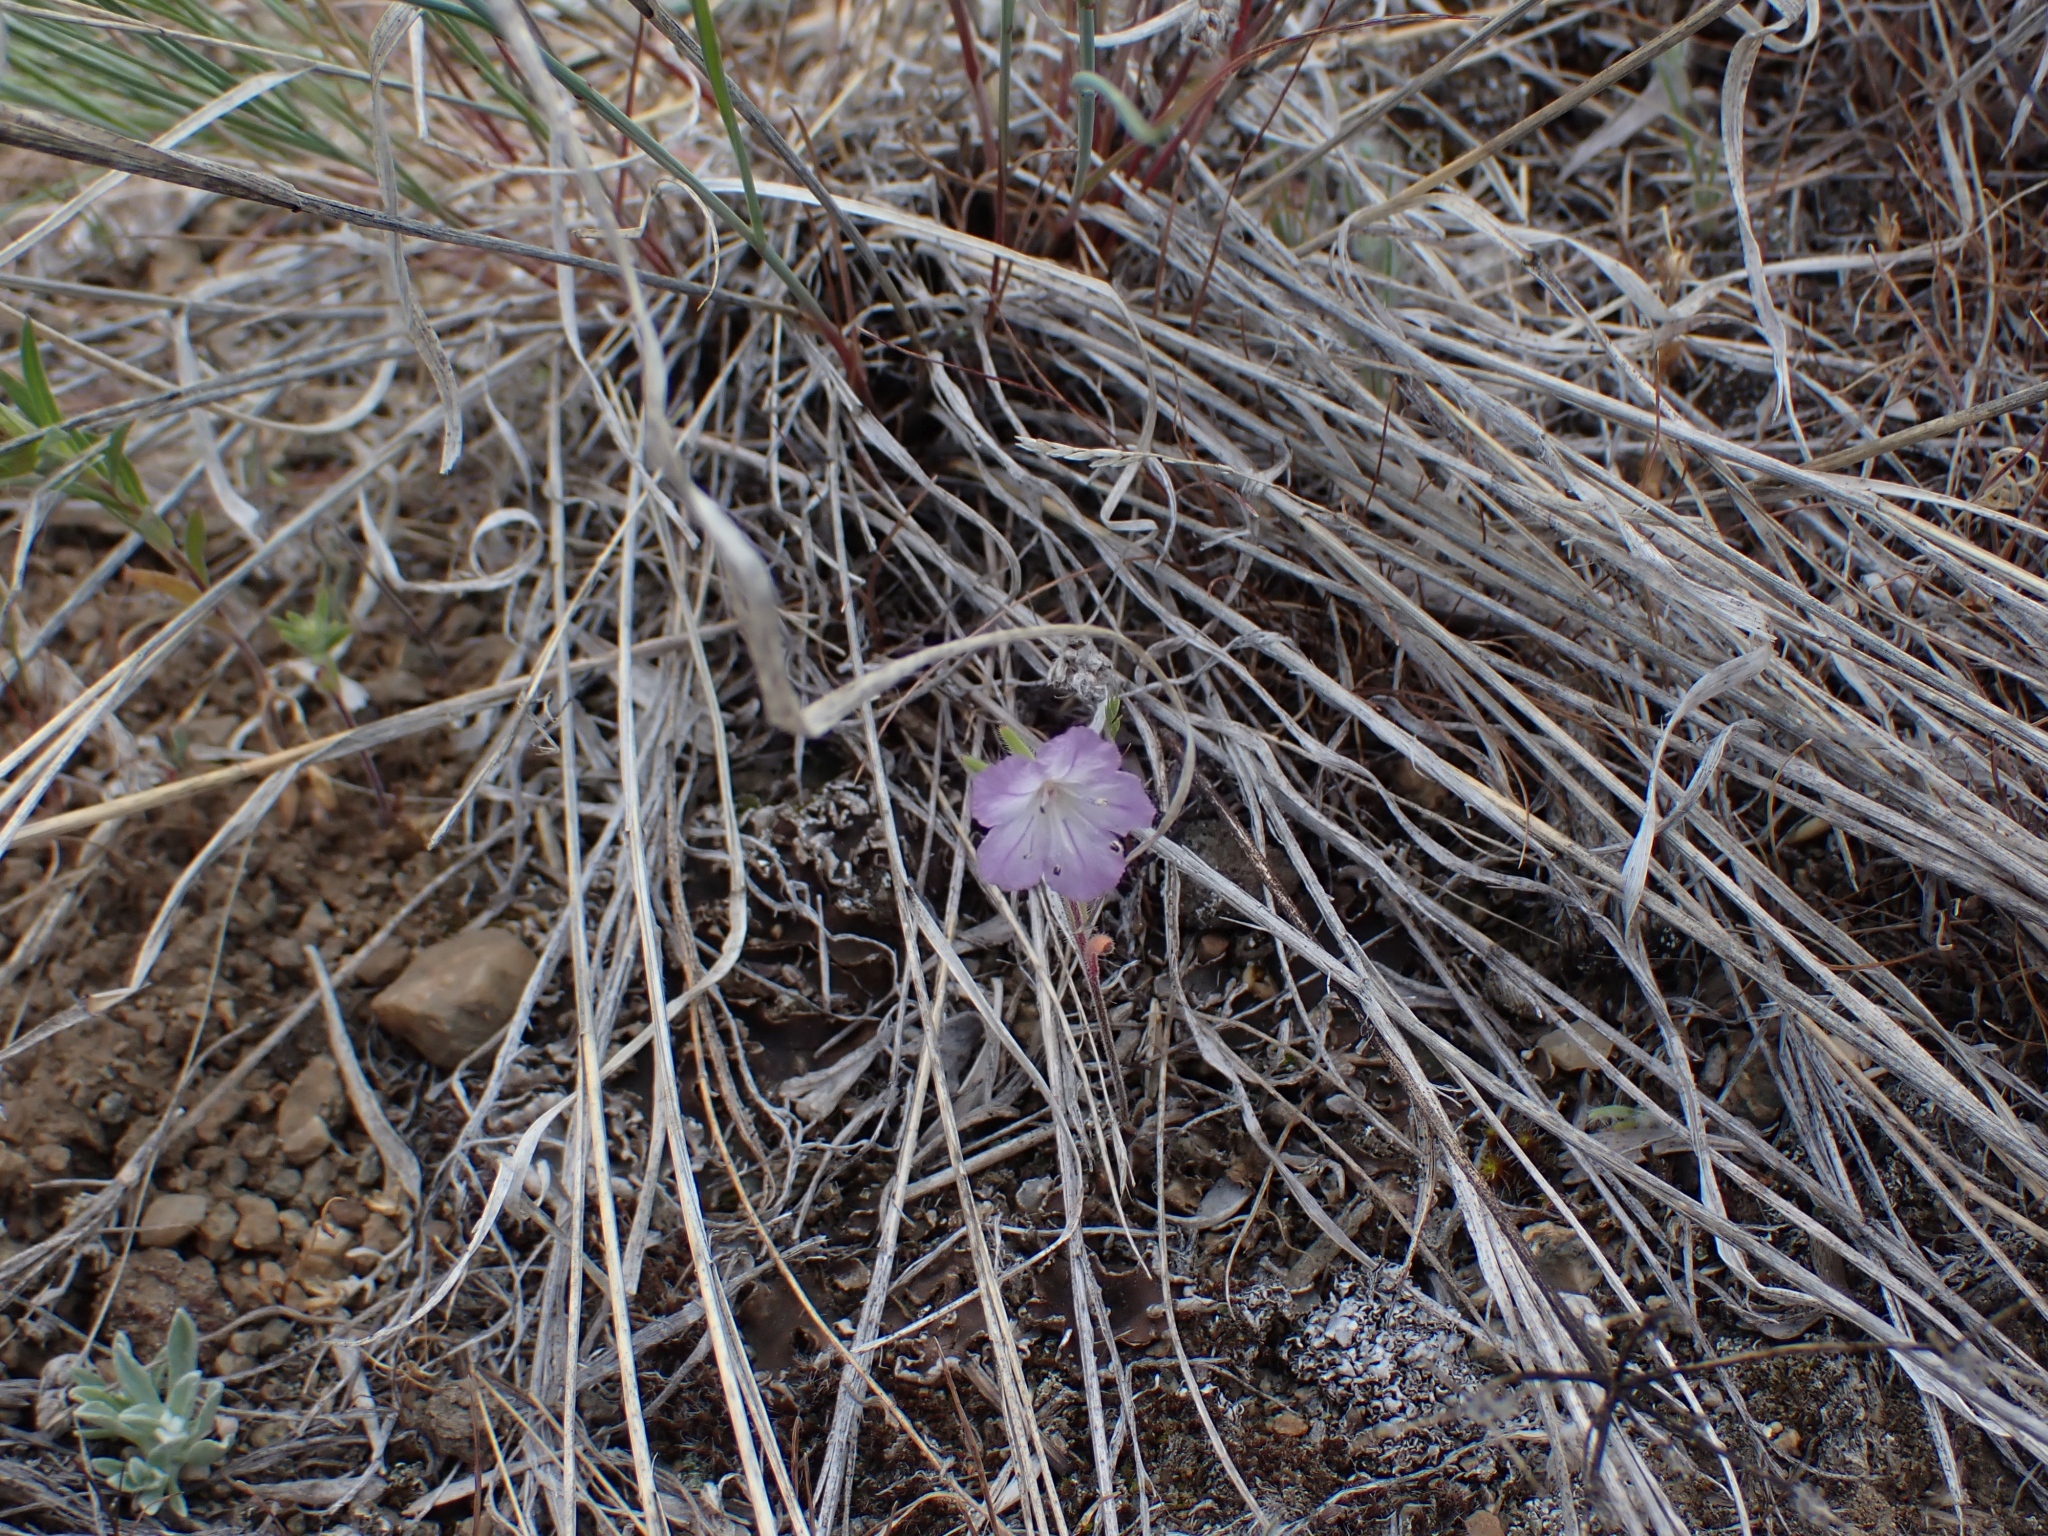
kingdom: Plantae
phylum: Tracheophyta
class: Magnoliopsida
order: Boraginales
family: Hydrophyllaceae
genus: Phacelia
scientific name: Phacelia linearis
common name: Linear-leaved phacelia
